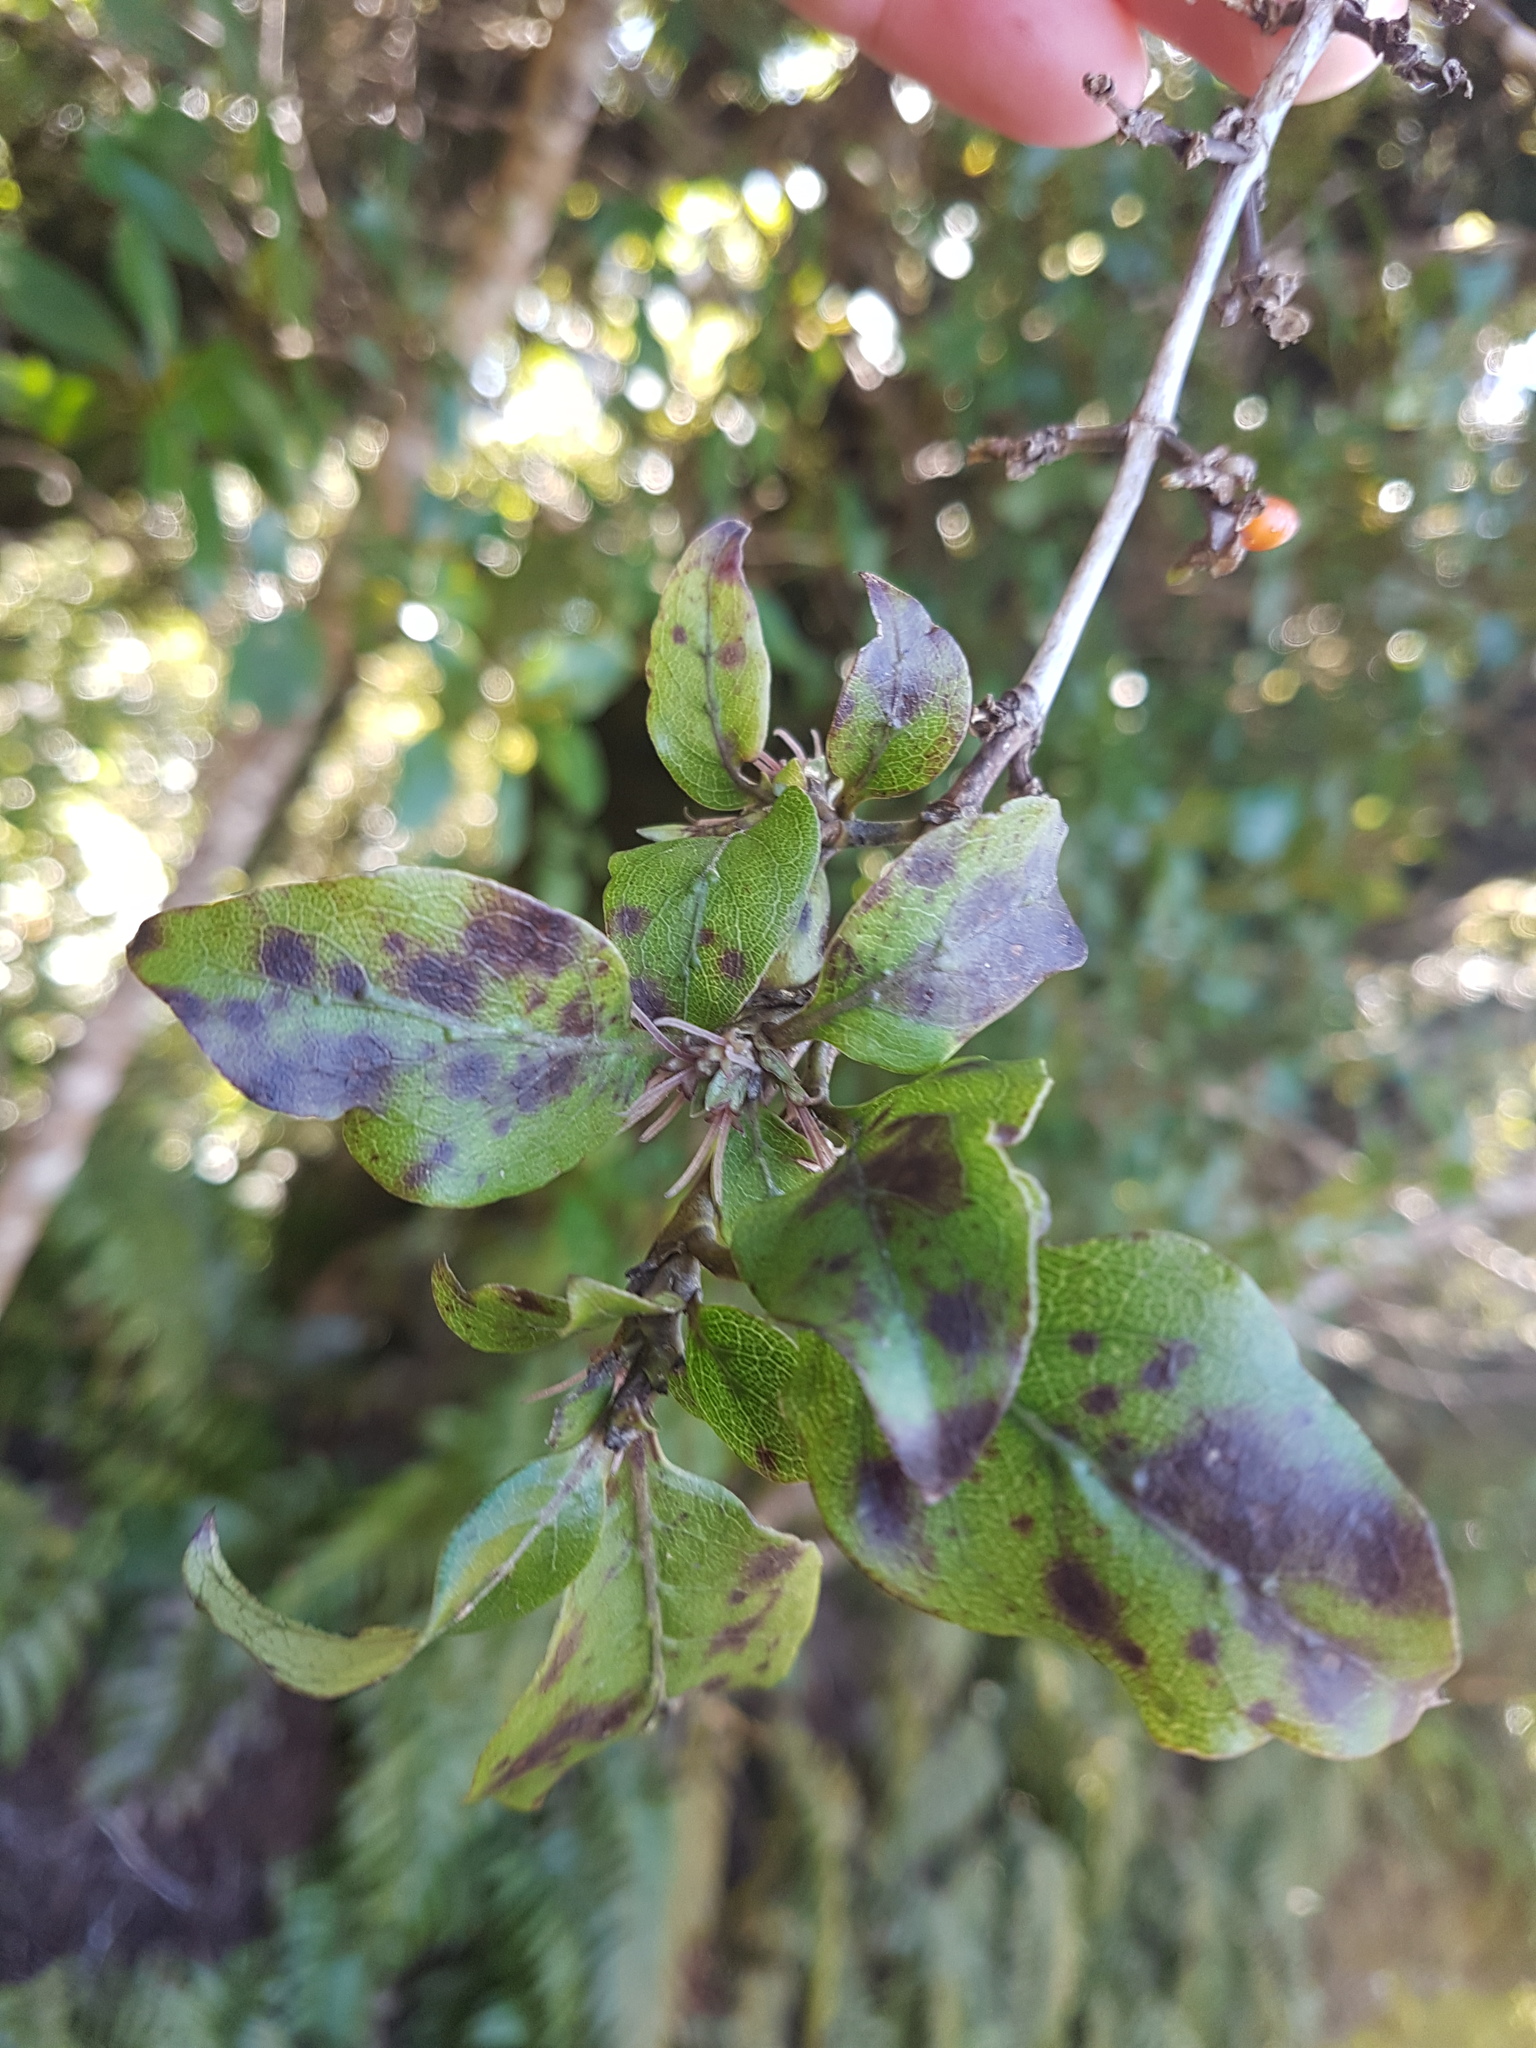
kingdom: Plantae
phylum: Tracheophyta
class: Magnoliopsida
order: Gentianales
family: Rubiaceae
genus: Coprosma
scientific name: Coprosma tenuifolia
